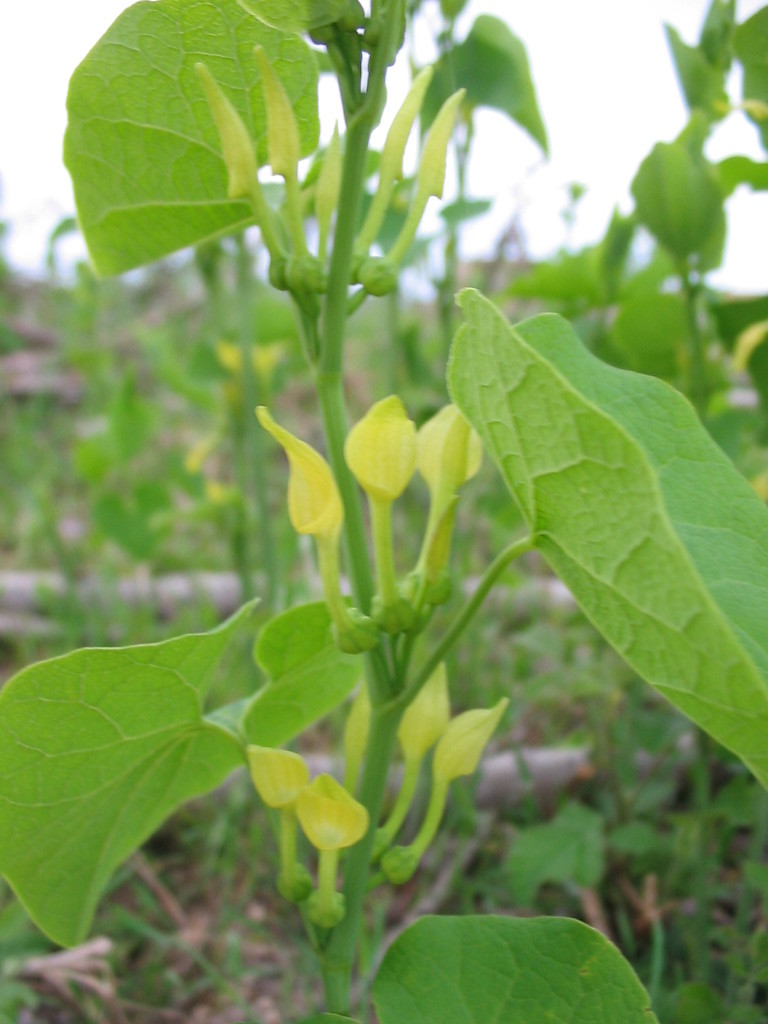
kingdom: Plantae
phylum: Tracheophyta
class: Magnoliopsida
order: Piperales
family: Aristolochiaceae
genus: Aristolochia
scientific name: Aristolochia clematitis
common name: Birthwort
